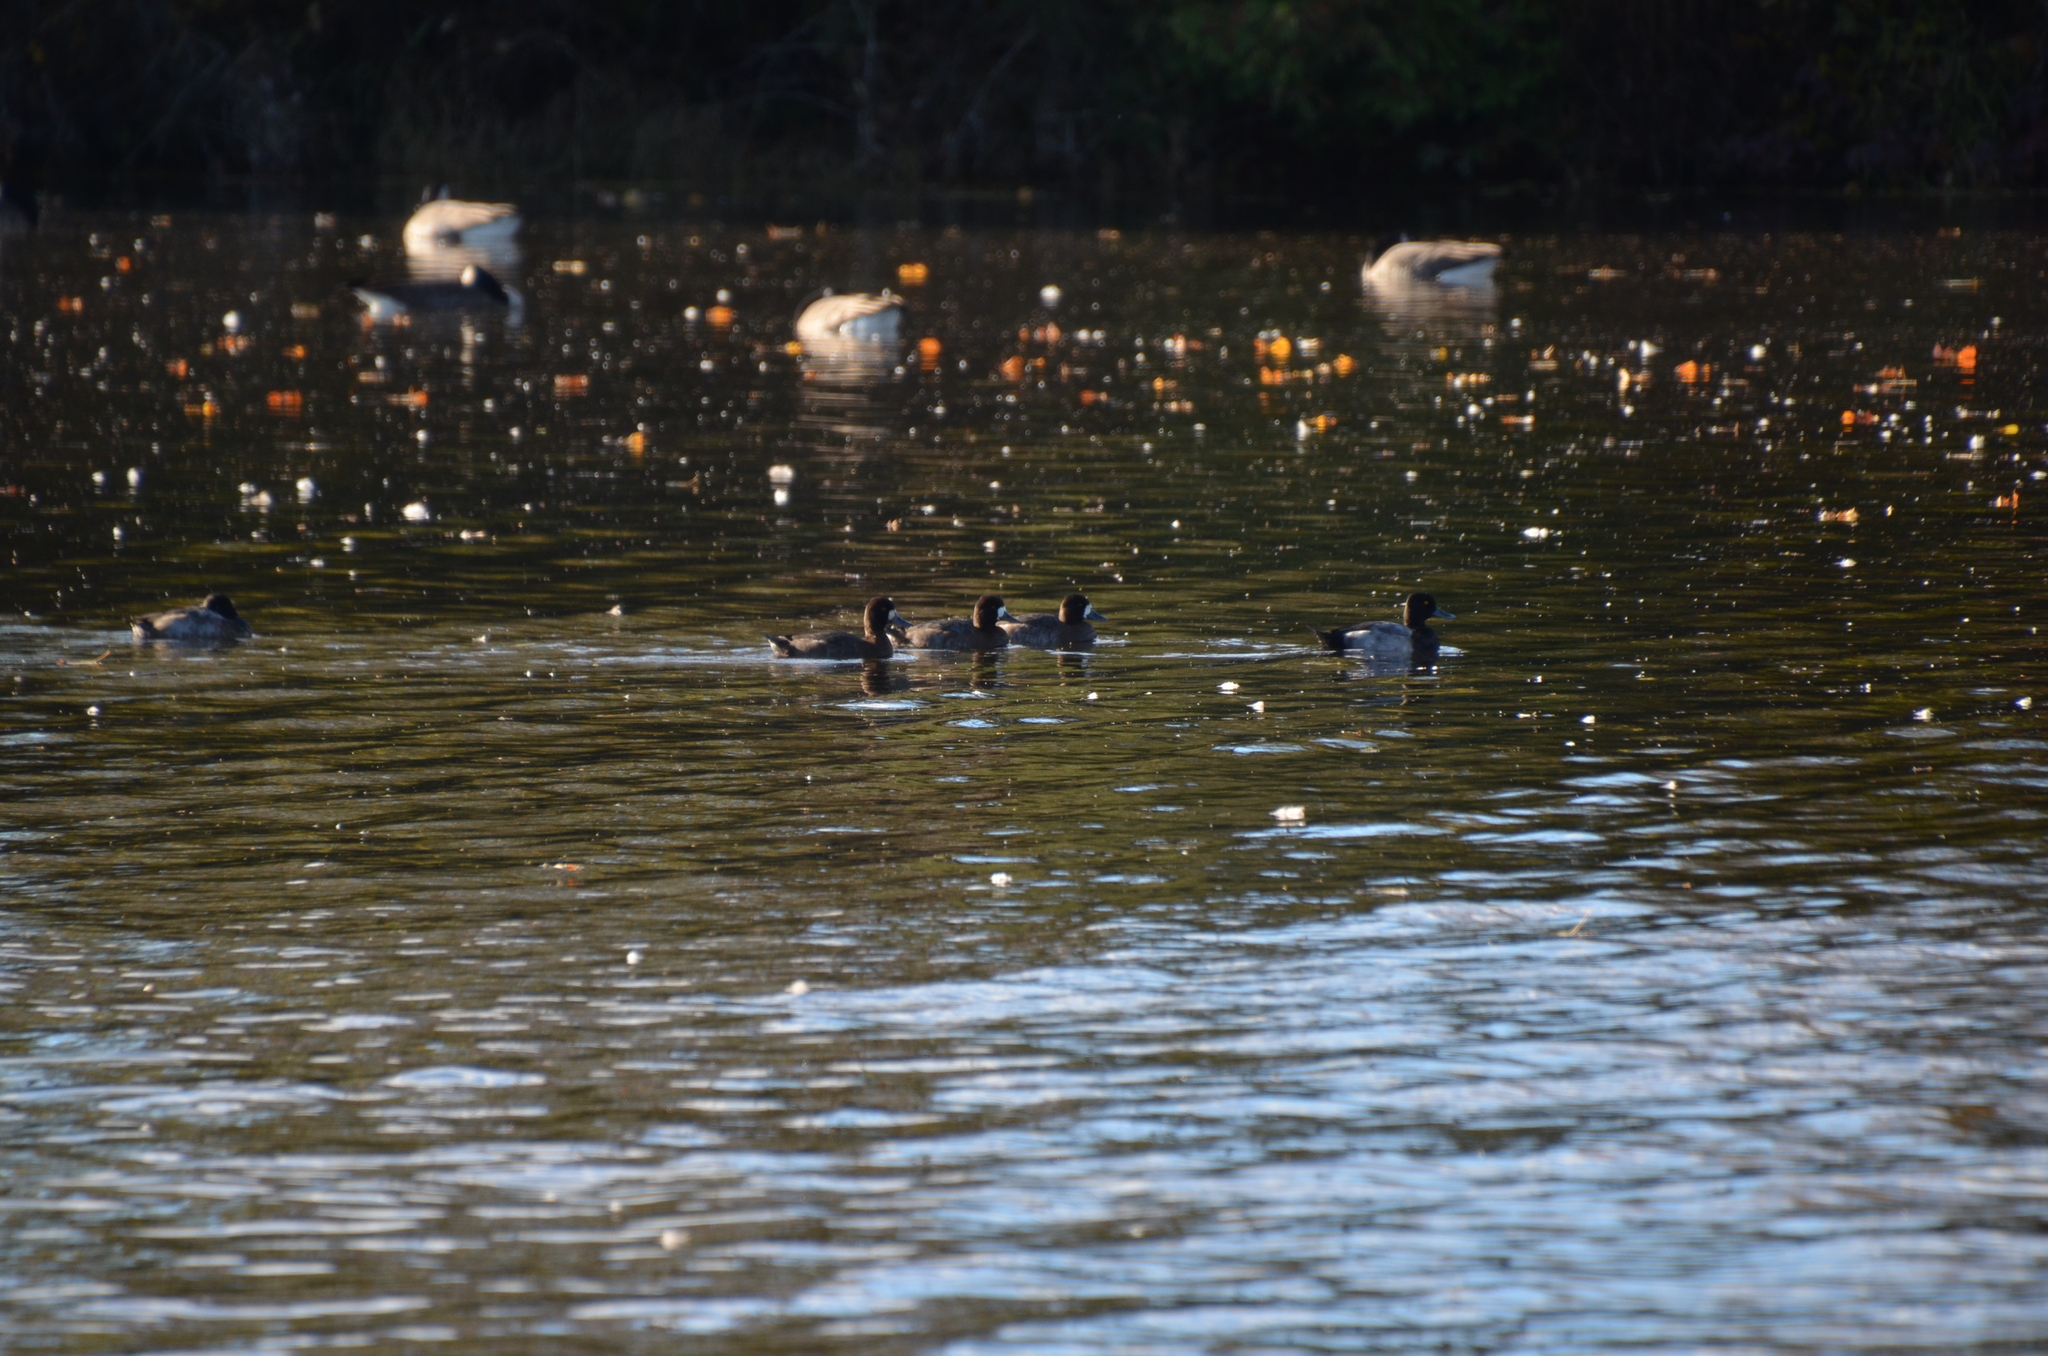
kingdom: Animalia
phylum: Chordata
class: Aves
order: Anseriformes
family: Anatidae
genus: Aythya
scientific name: Aythya marila
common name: Greater scaup
